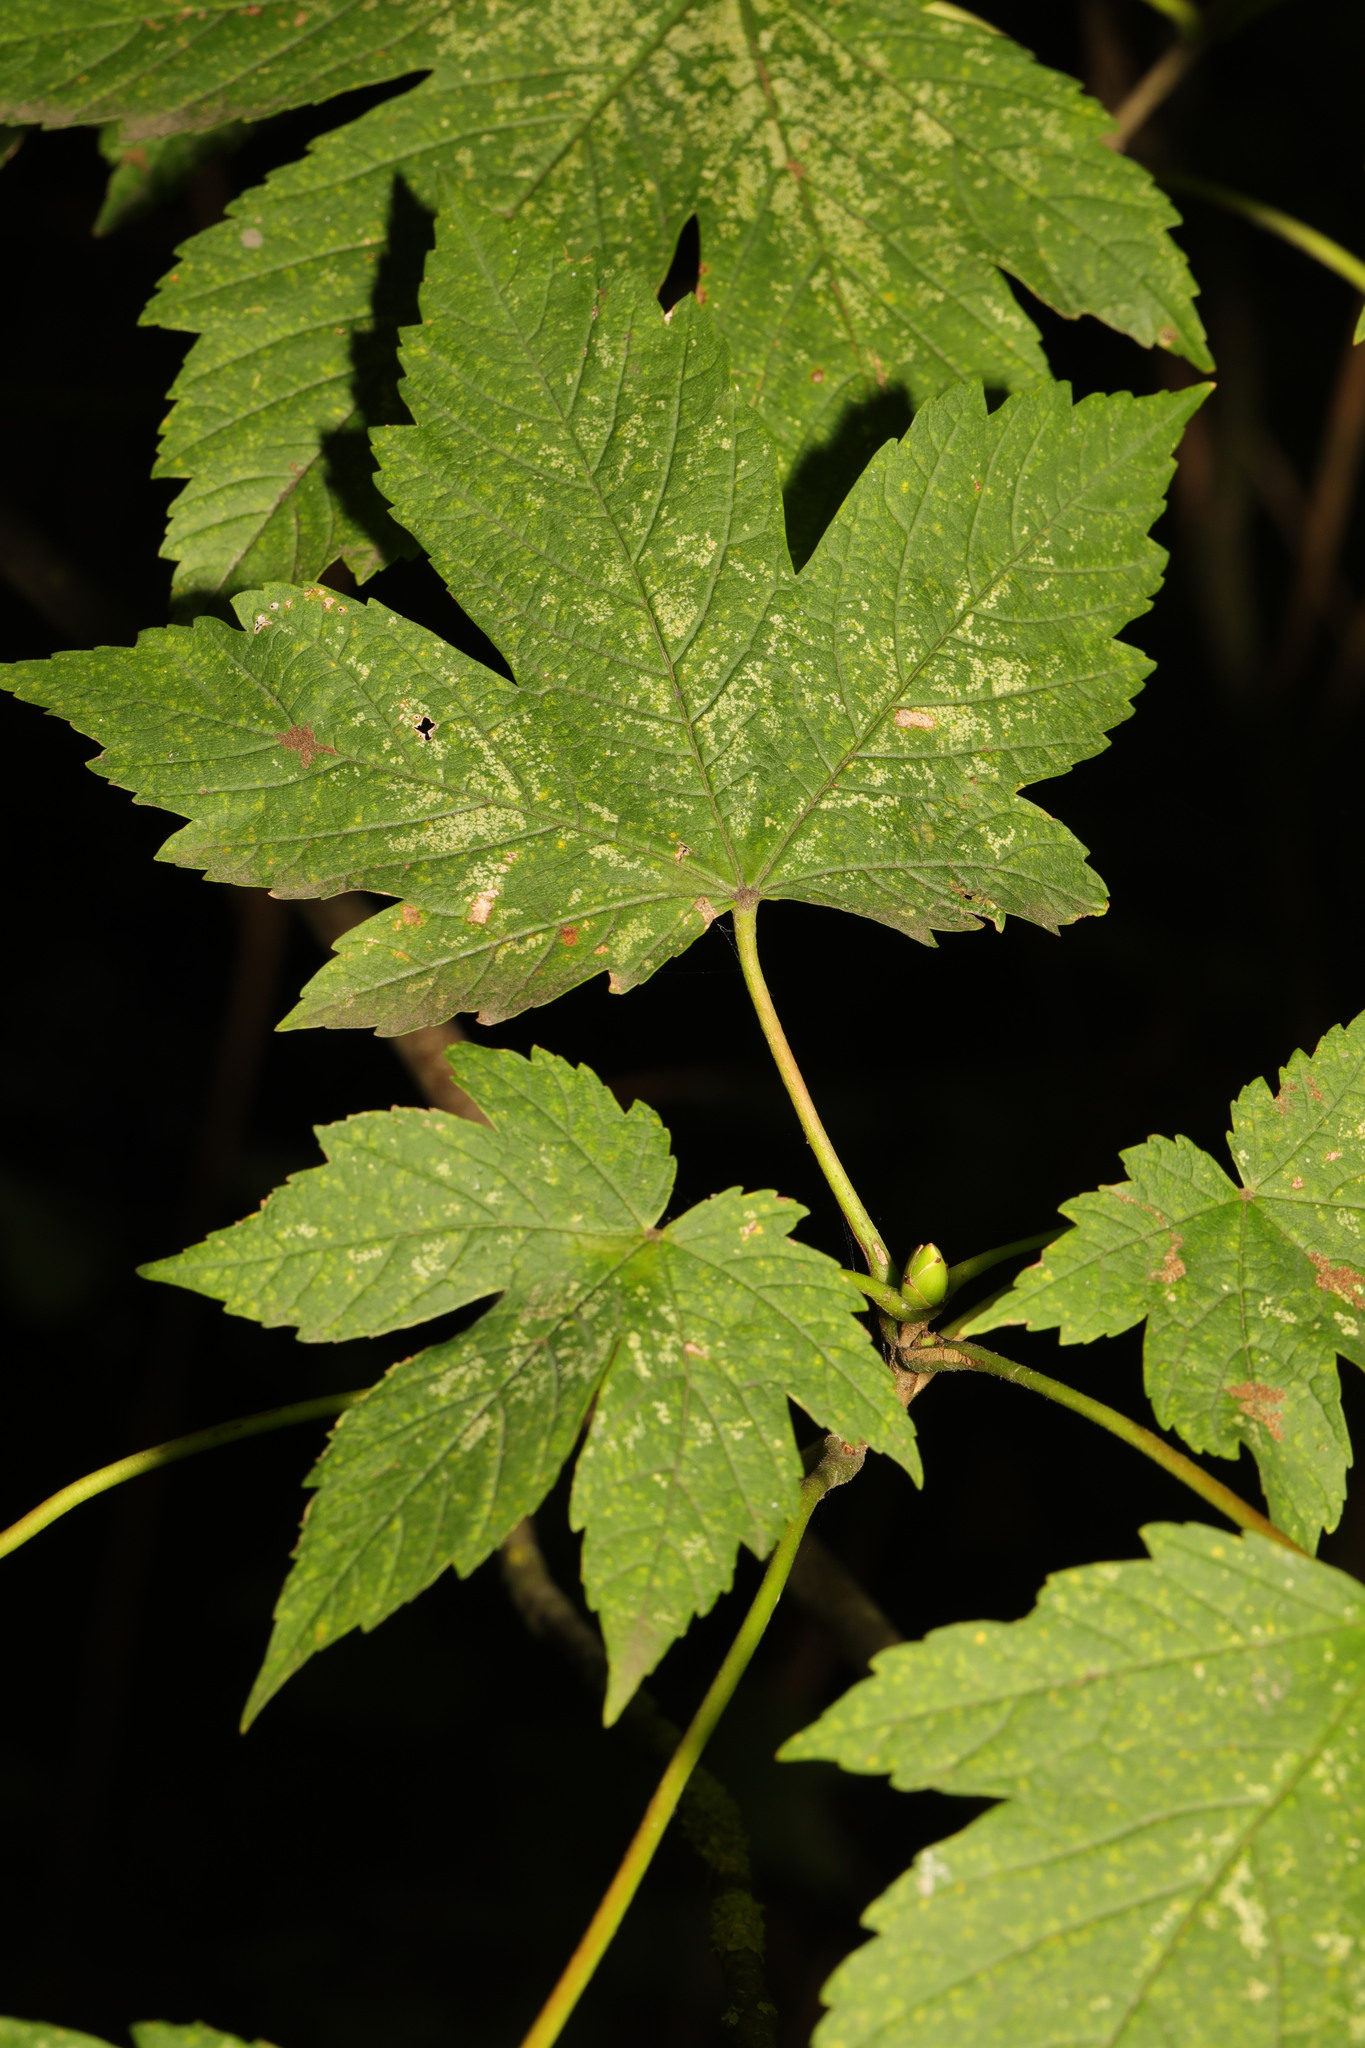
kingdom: Plantae
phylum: Tracheophyta
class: Magnoliopsida
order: Sapindales
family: Sapindaceae
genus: Acer
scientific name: Acer pseudoplatanus
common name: Sycamore
